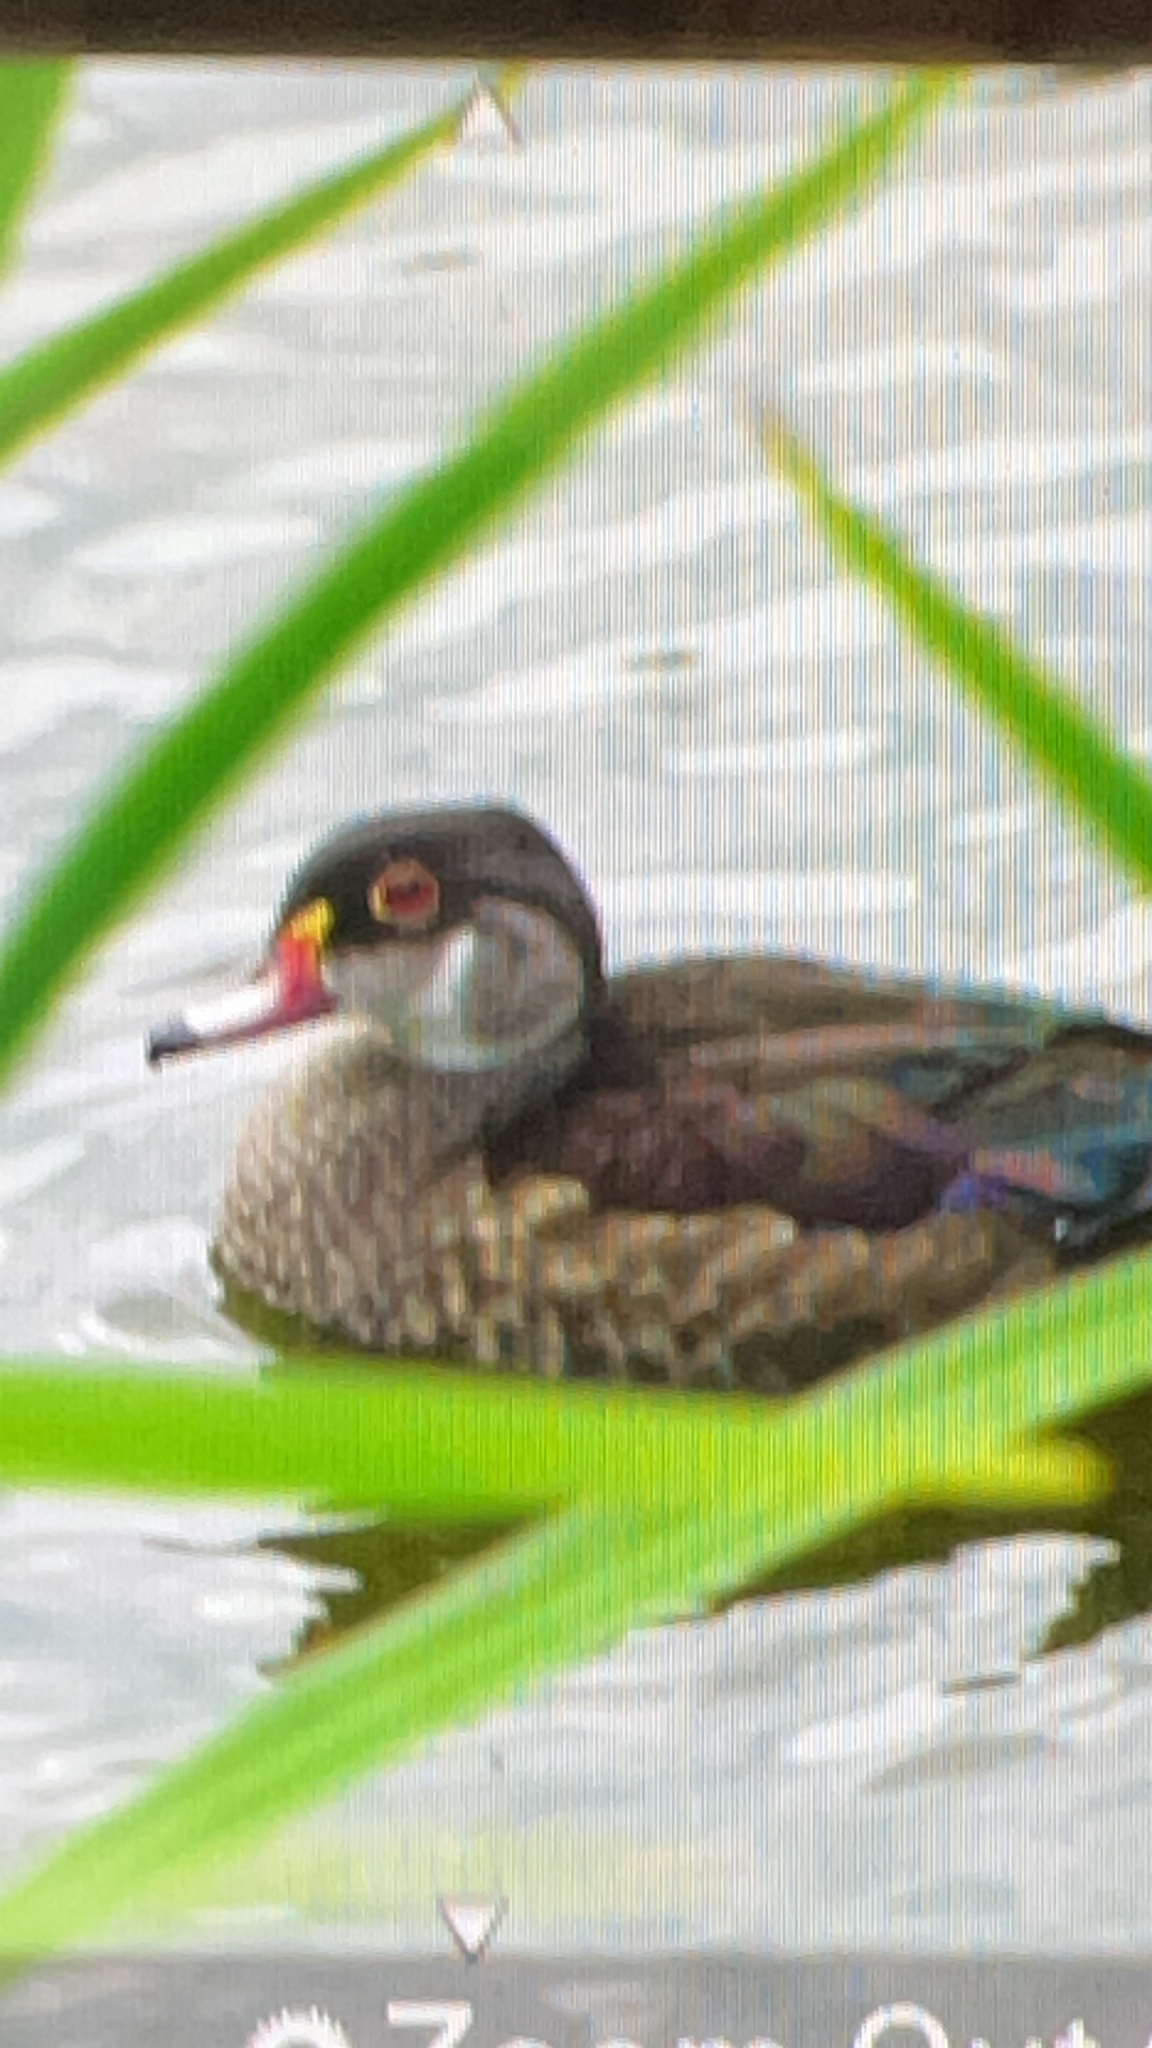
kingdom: Animalia
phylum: Chordata
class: Aves
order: Anseriformes
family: Anatidae
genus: Aix
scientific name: Aix sponsa
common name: Wood duck
